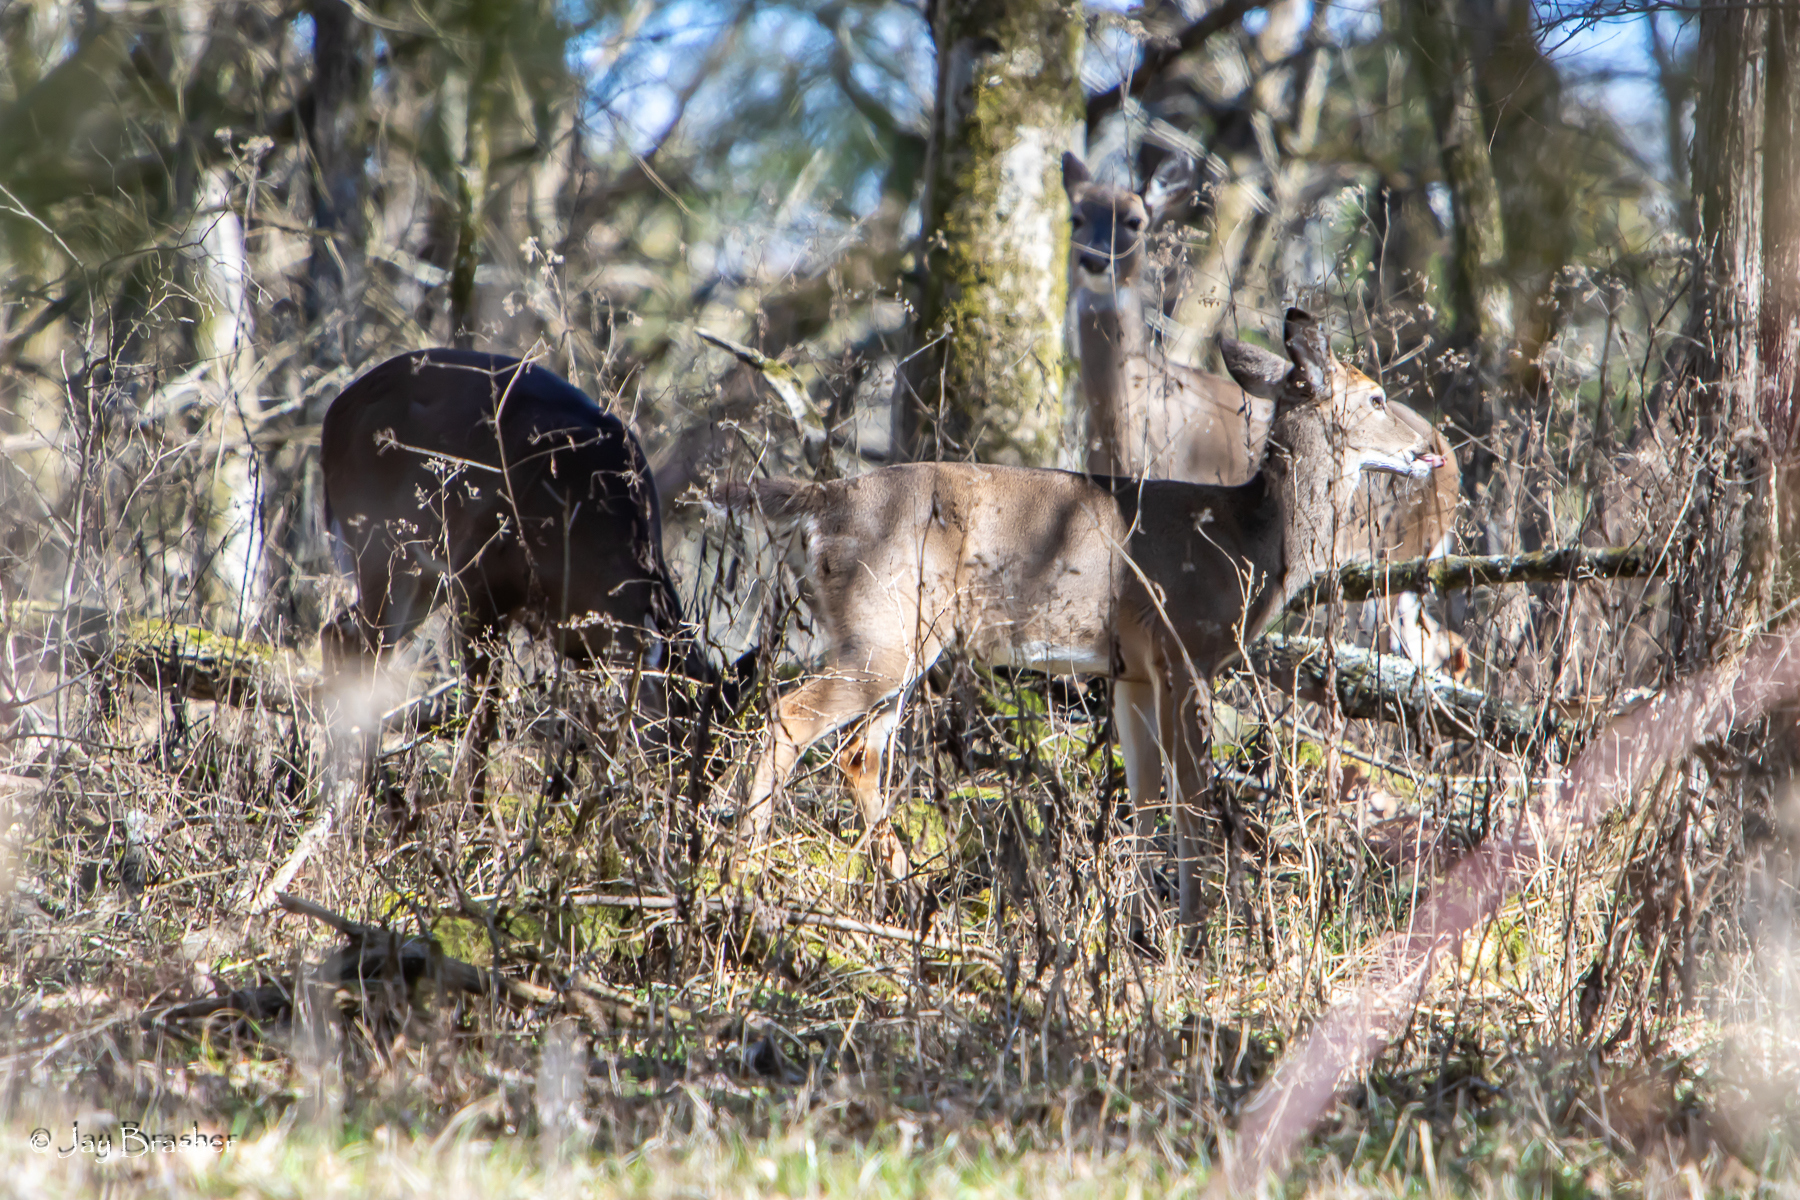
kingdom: Animalia
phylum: Chordata
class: Mammalia
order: Artiodactyla
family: Cervidae
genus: Odocoileus
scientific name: Odocoileus virginianus
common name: White-tailed deer
